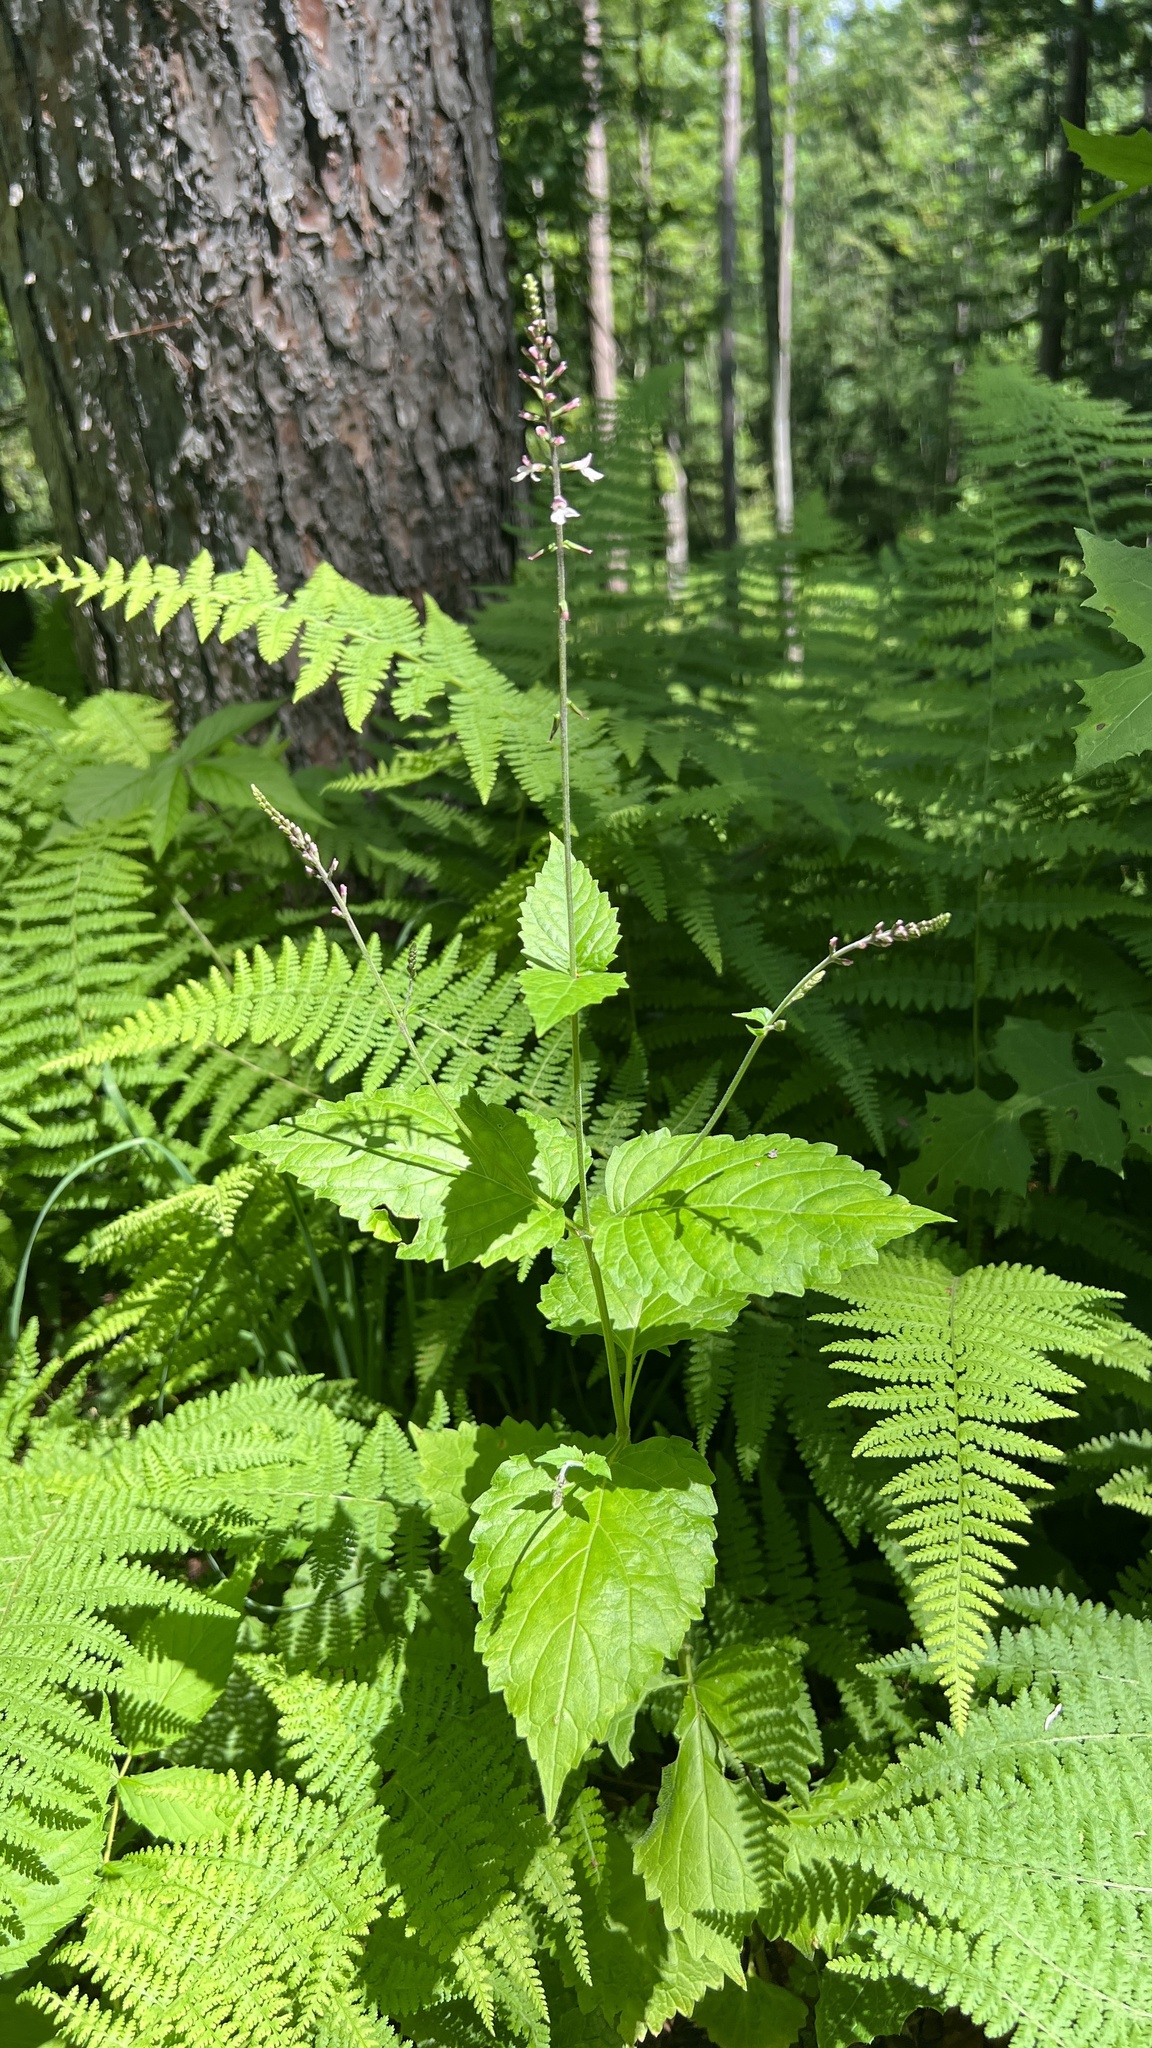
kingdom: Plantae
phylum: Tracheophyta
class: Magnoliopsida
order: Lamiales
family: Phrymaceae
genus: Phryma
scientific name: Phryma leptostachya
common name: American lopseed
